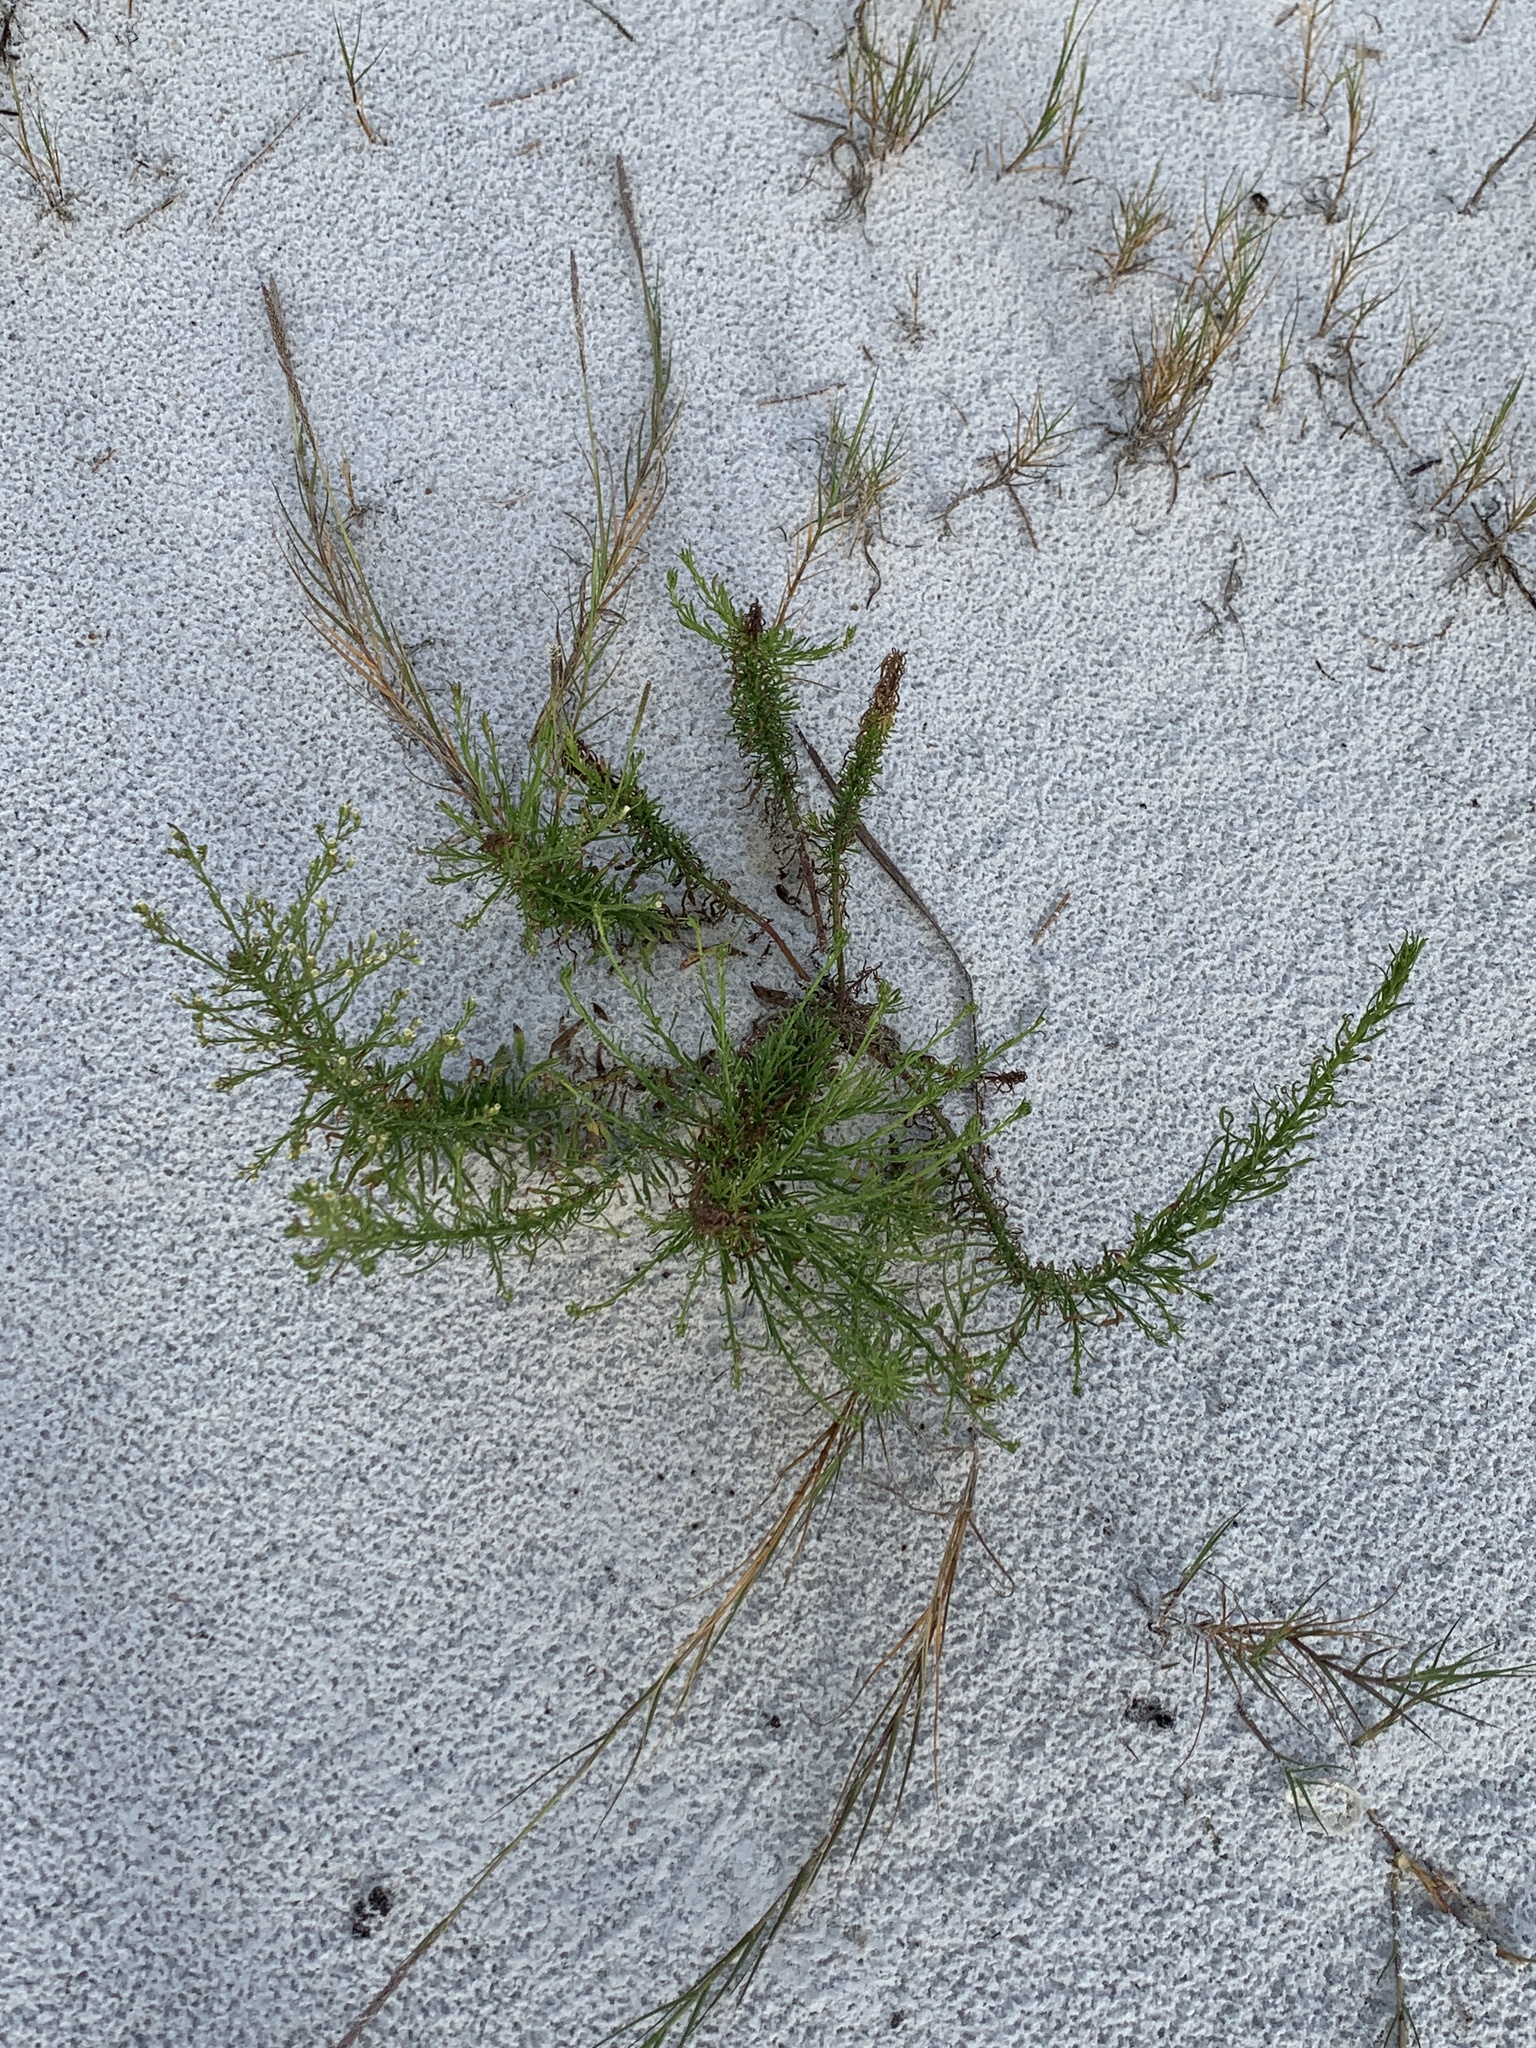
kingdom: Plantae
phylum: Tracheophyta
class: Magnoliopsida
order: Asterales
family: Asteraceae
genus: Erigeron
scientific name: Erigeron canadensis
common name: Canadian fleabane
